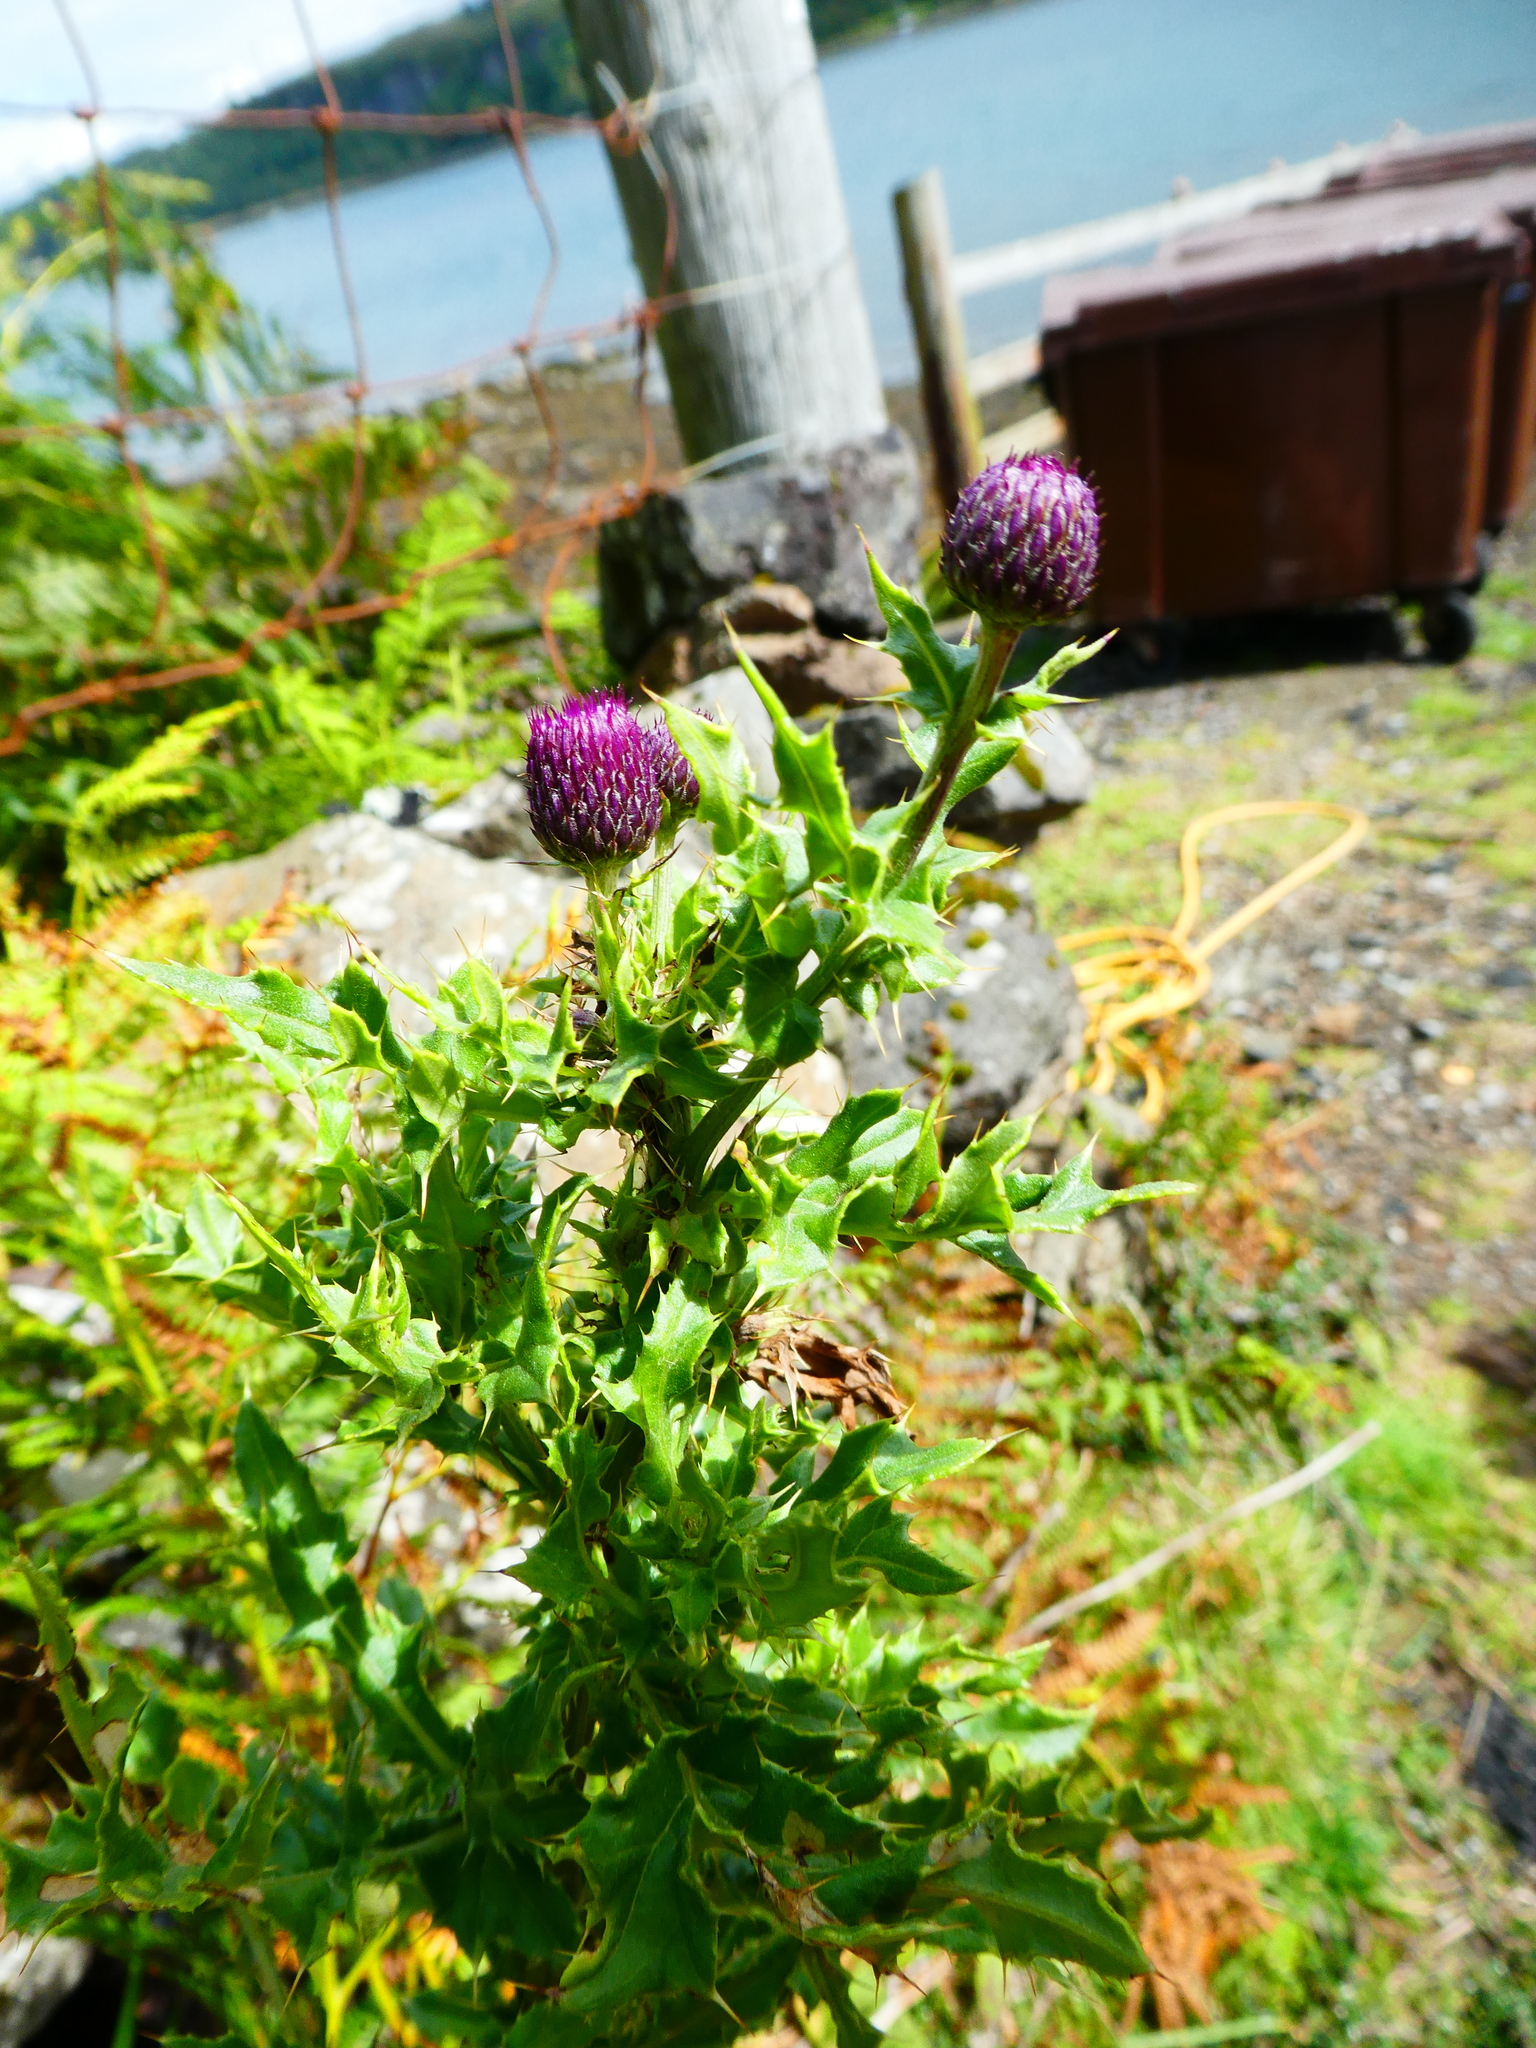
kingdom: Plantae
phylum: Tracheophyta
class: Magnoliopsida
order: Asterales
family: Asteraceae
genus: Cirsium
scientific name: Cirsium arvense
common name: Creeping thistle
